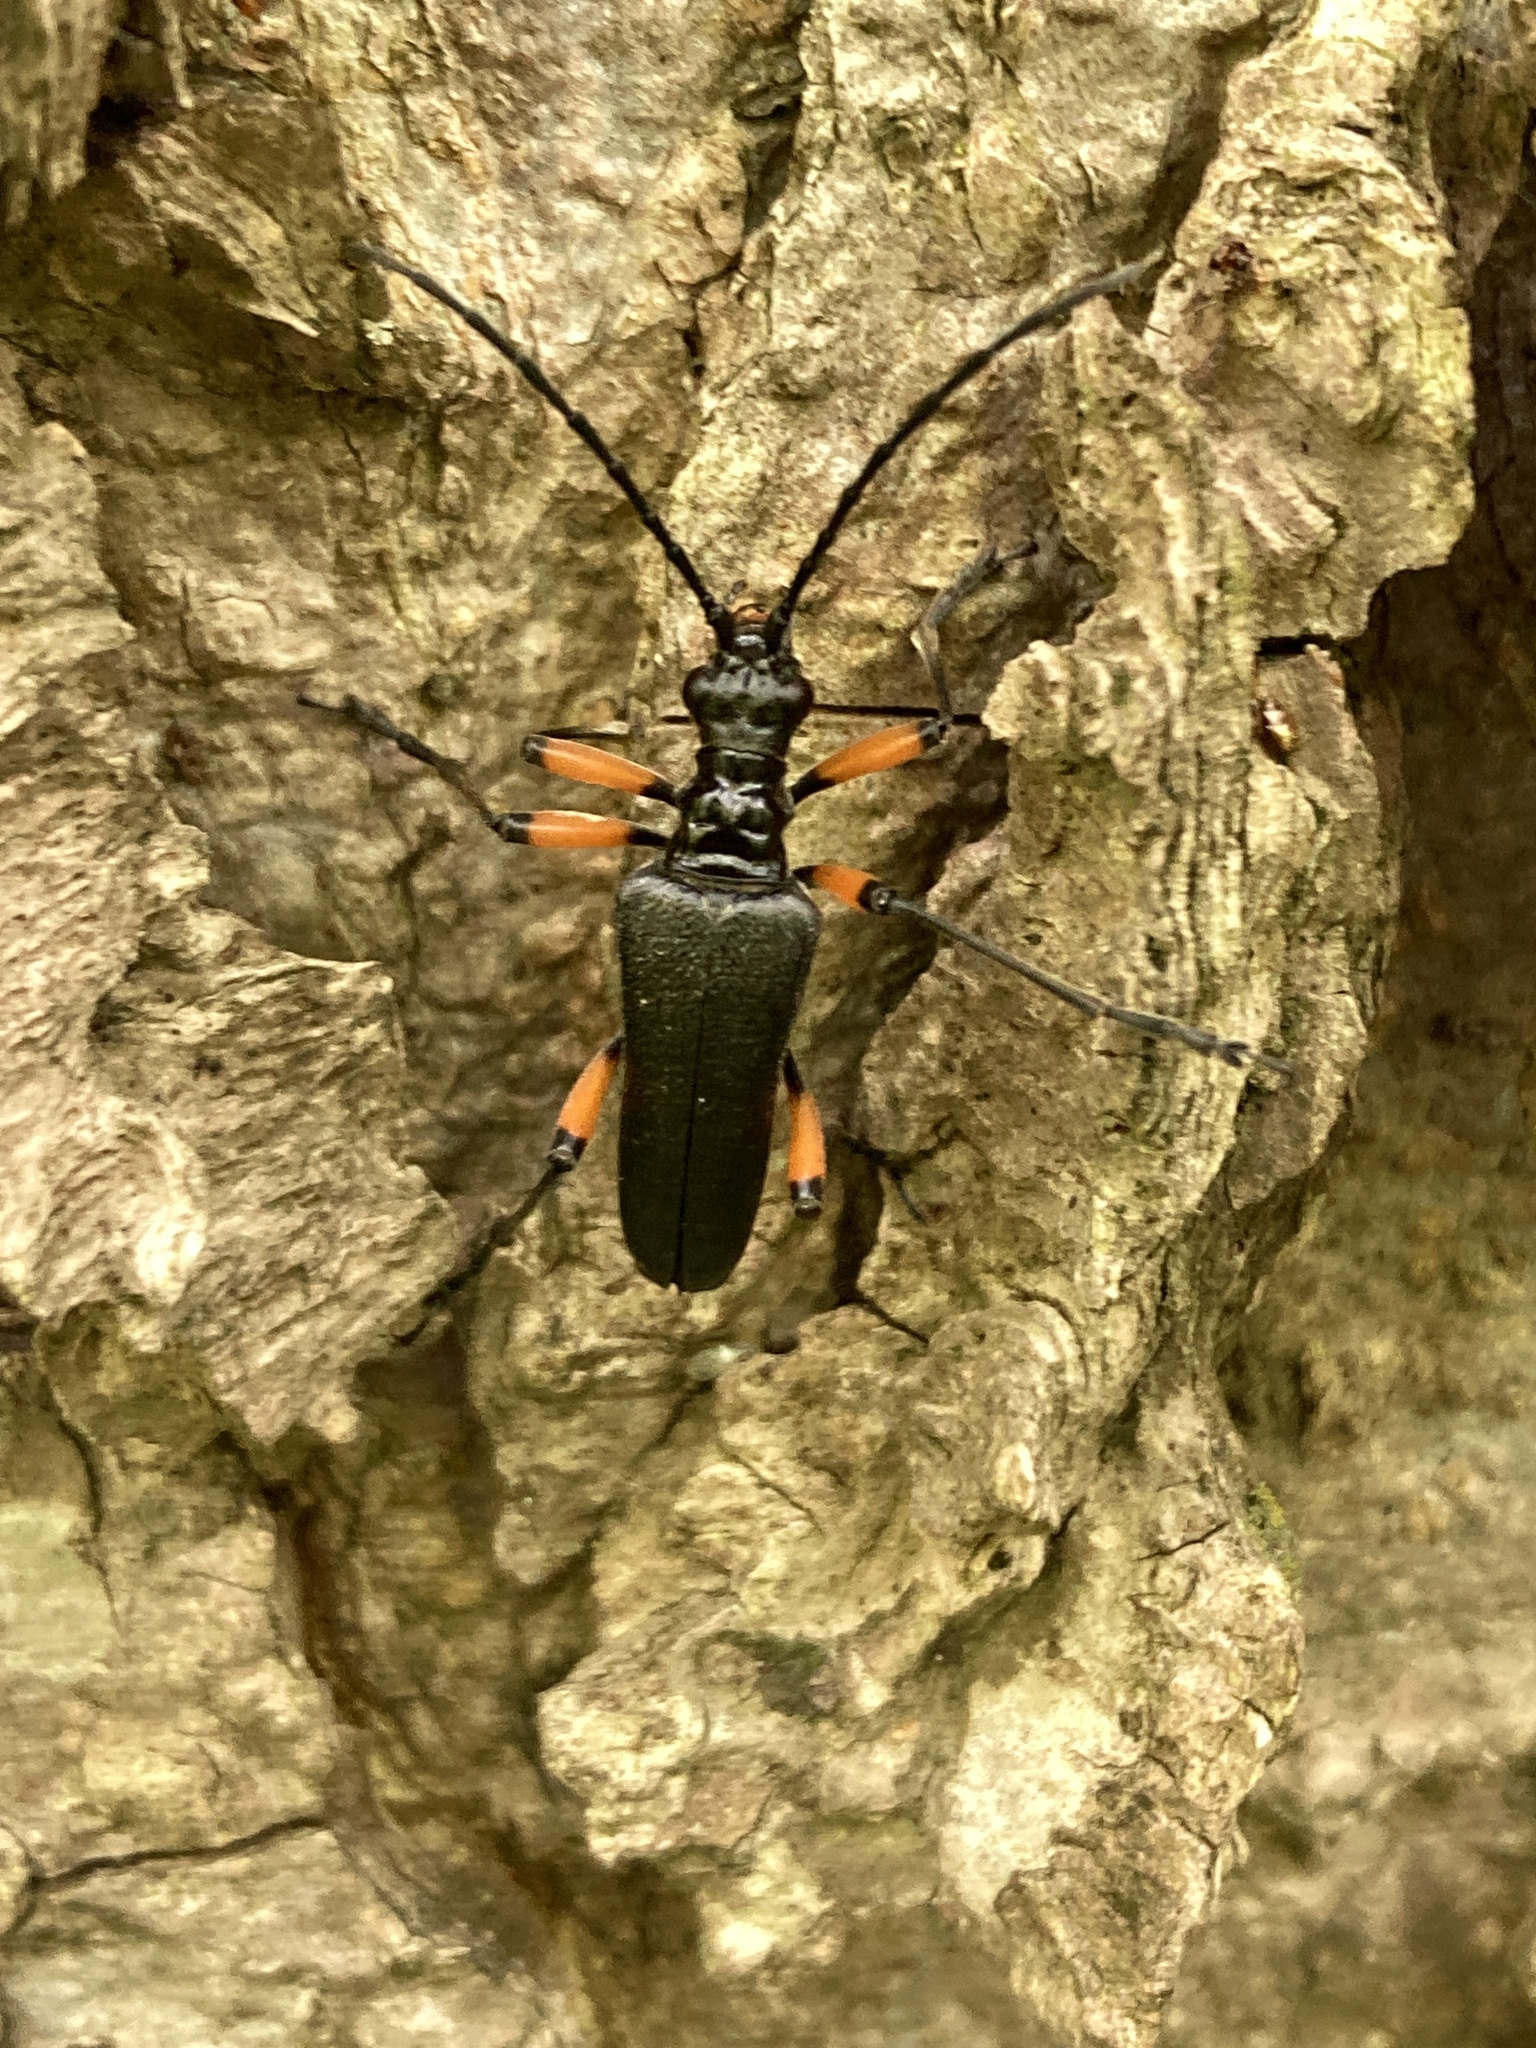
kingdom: Animalia
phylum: Arthropoda
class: Insecta
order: Coleoptera
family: Cerambycidae
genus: Stenocorus
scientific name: Stenocorus schaumii
